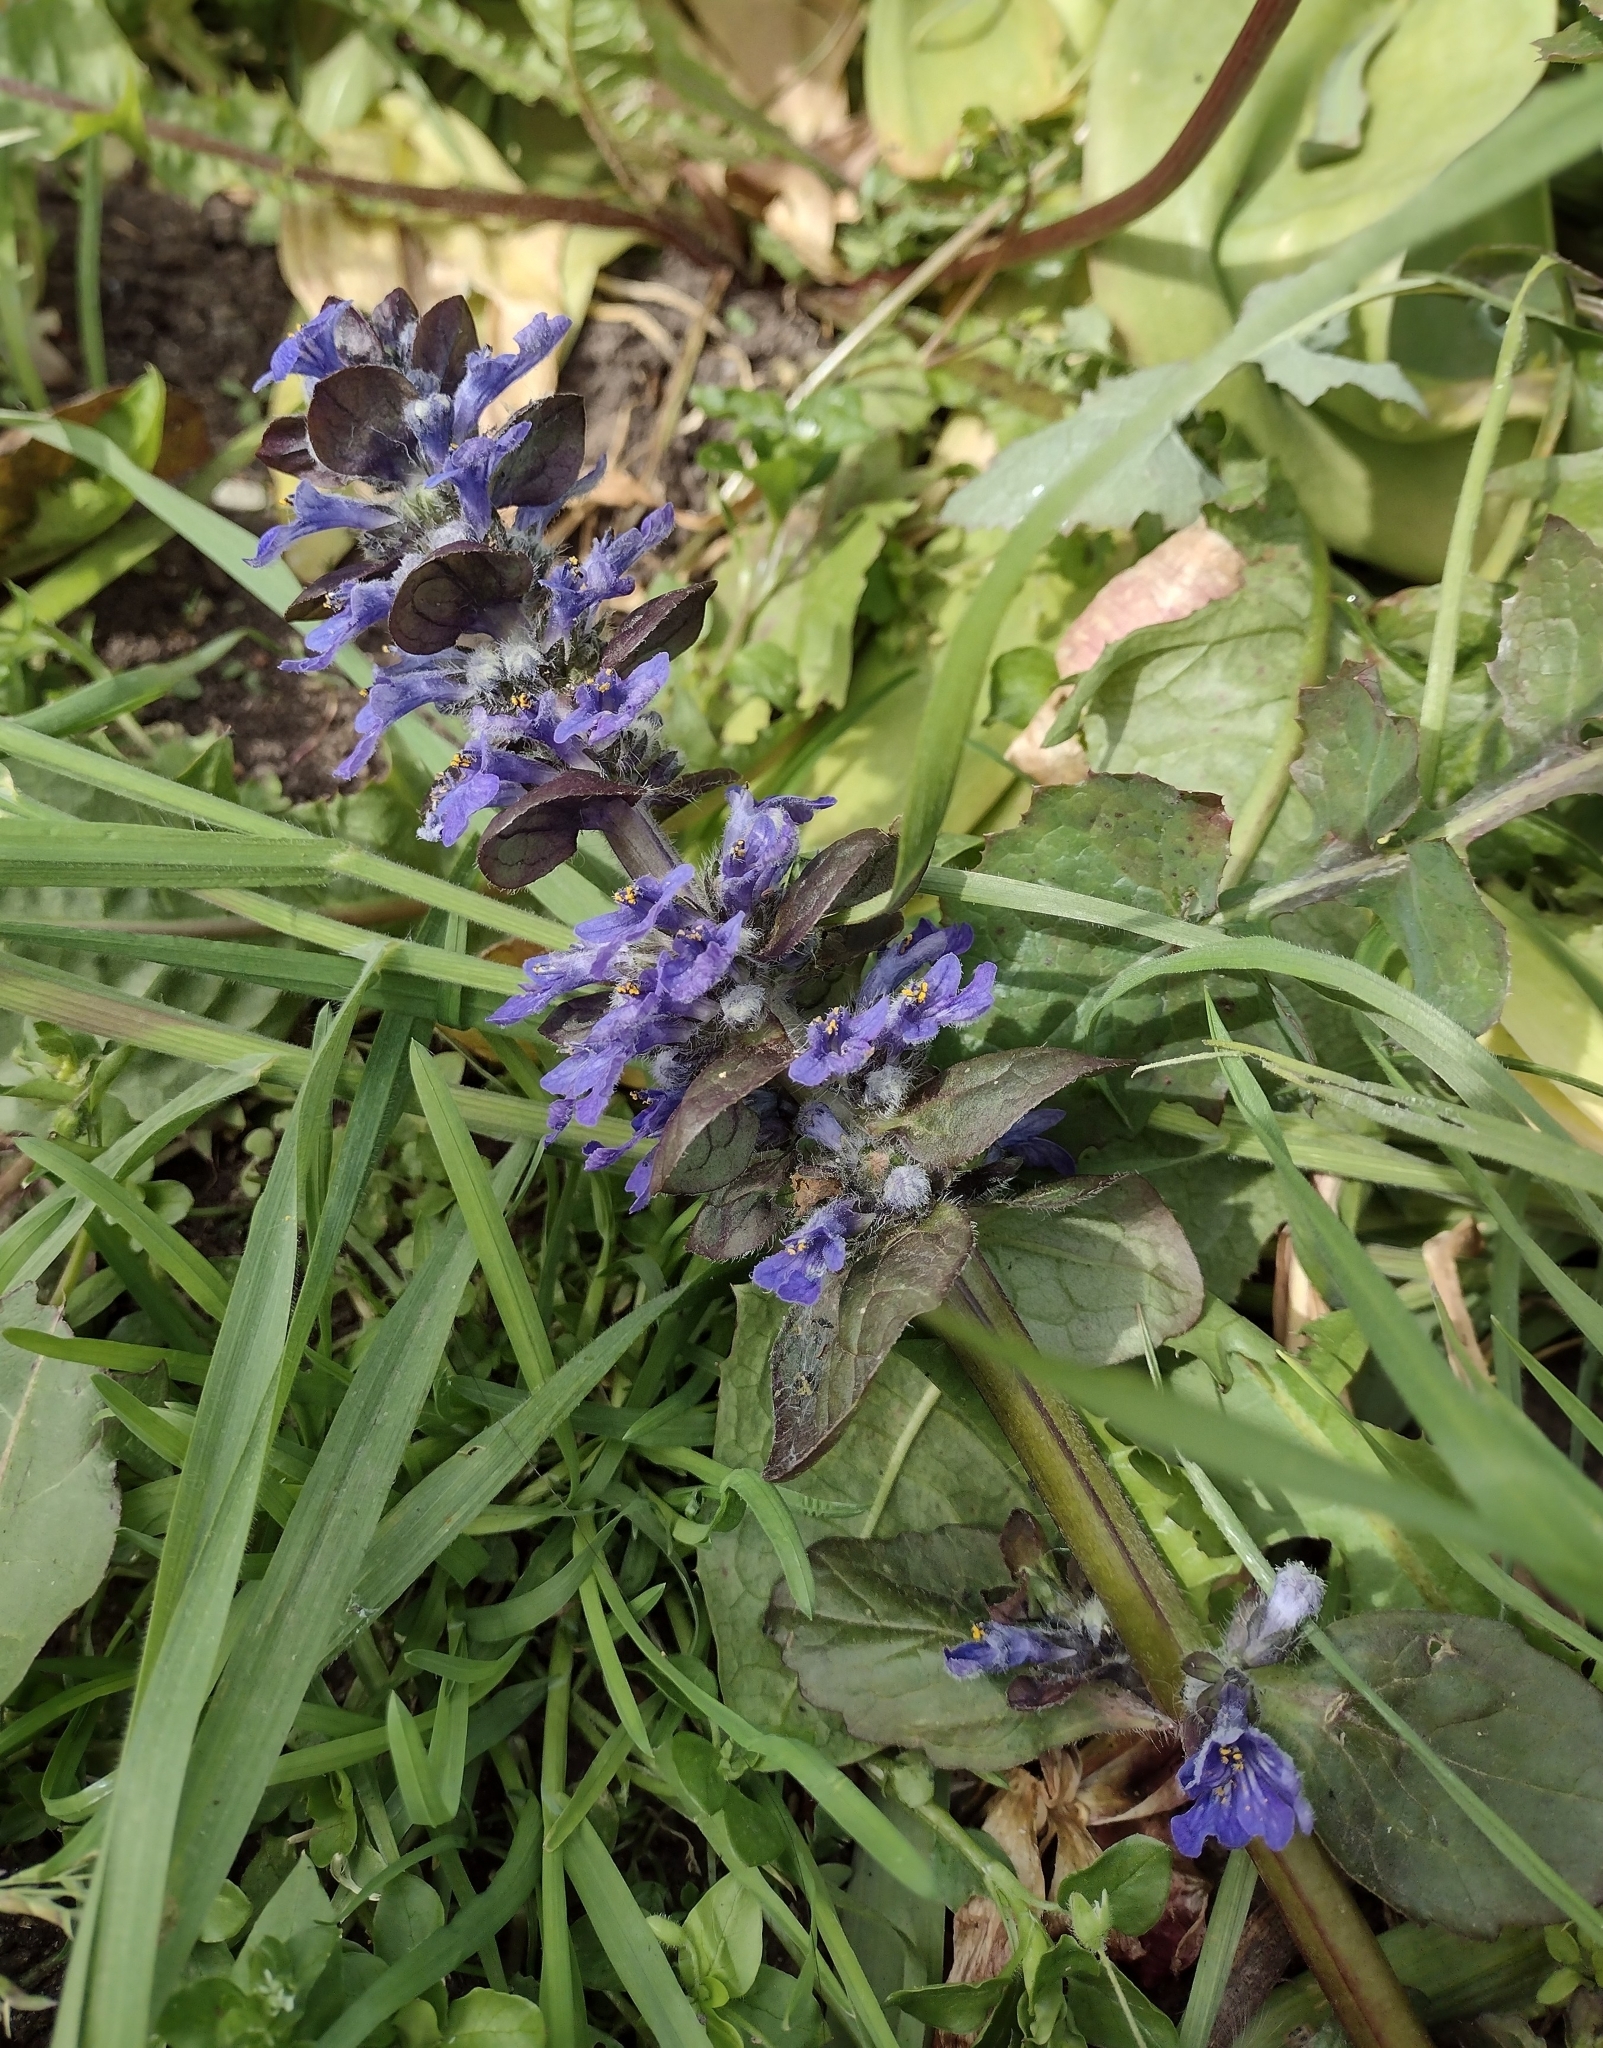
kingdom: Plantae
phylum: Tracheophyta
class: Magnoliopsida
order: Lamiales
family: Lamiaceae
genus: Ajuga
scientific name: Ajuga reptans
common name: Bugle
